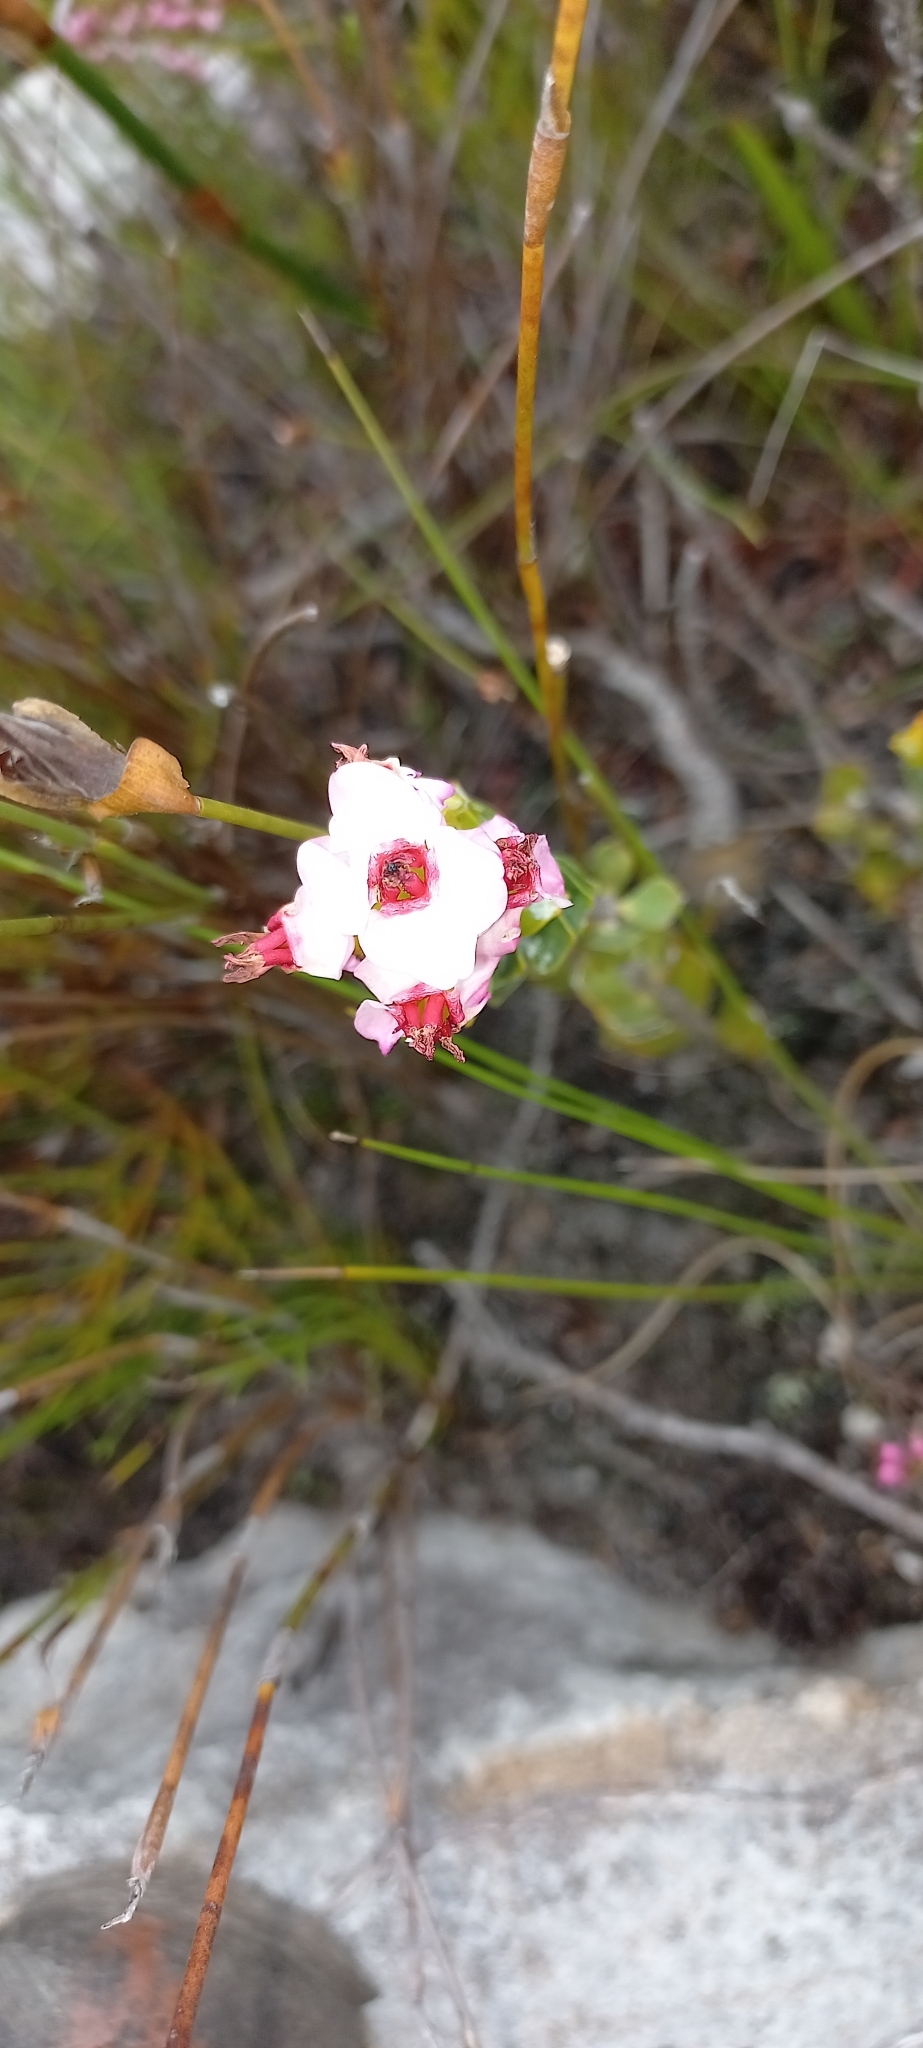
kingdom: Plantae
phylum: Tracheophyta
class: Magnoliopsida
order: Myrtales
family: Penaeaceae
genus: Saltera
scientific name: Saltera sarcocolla
